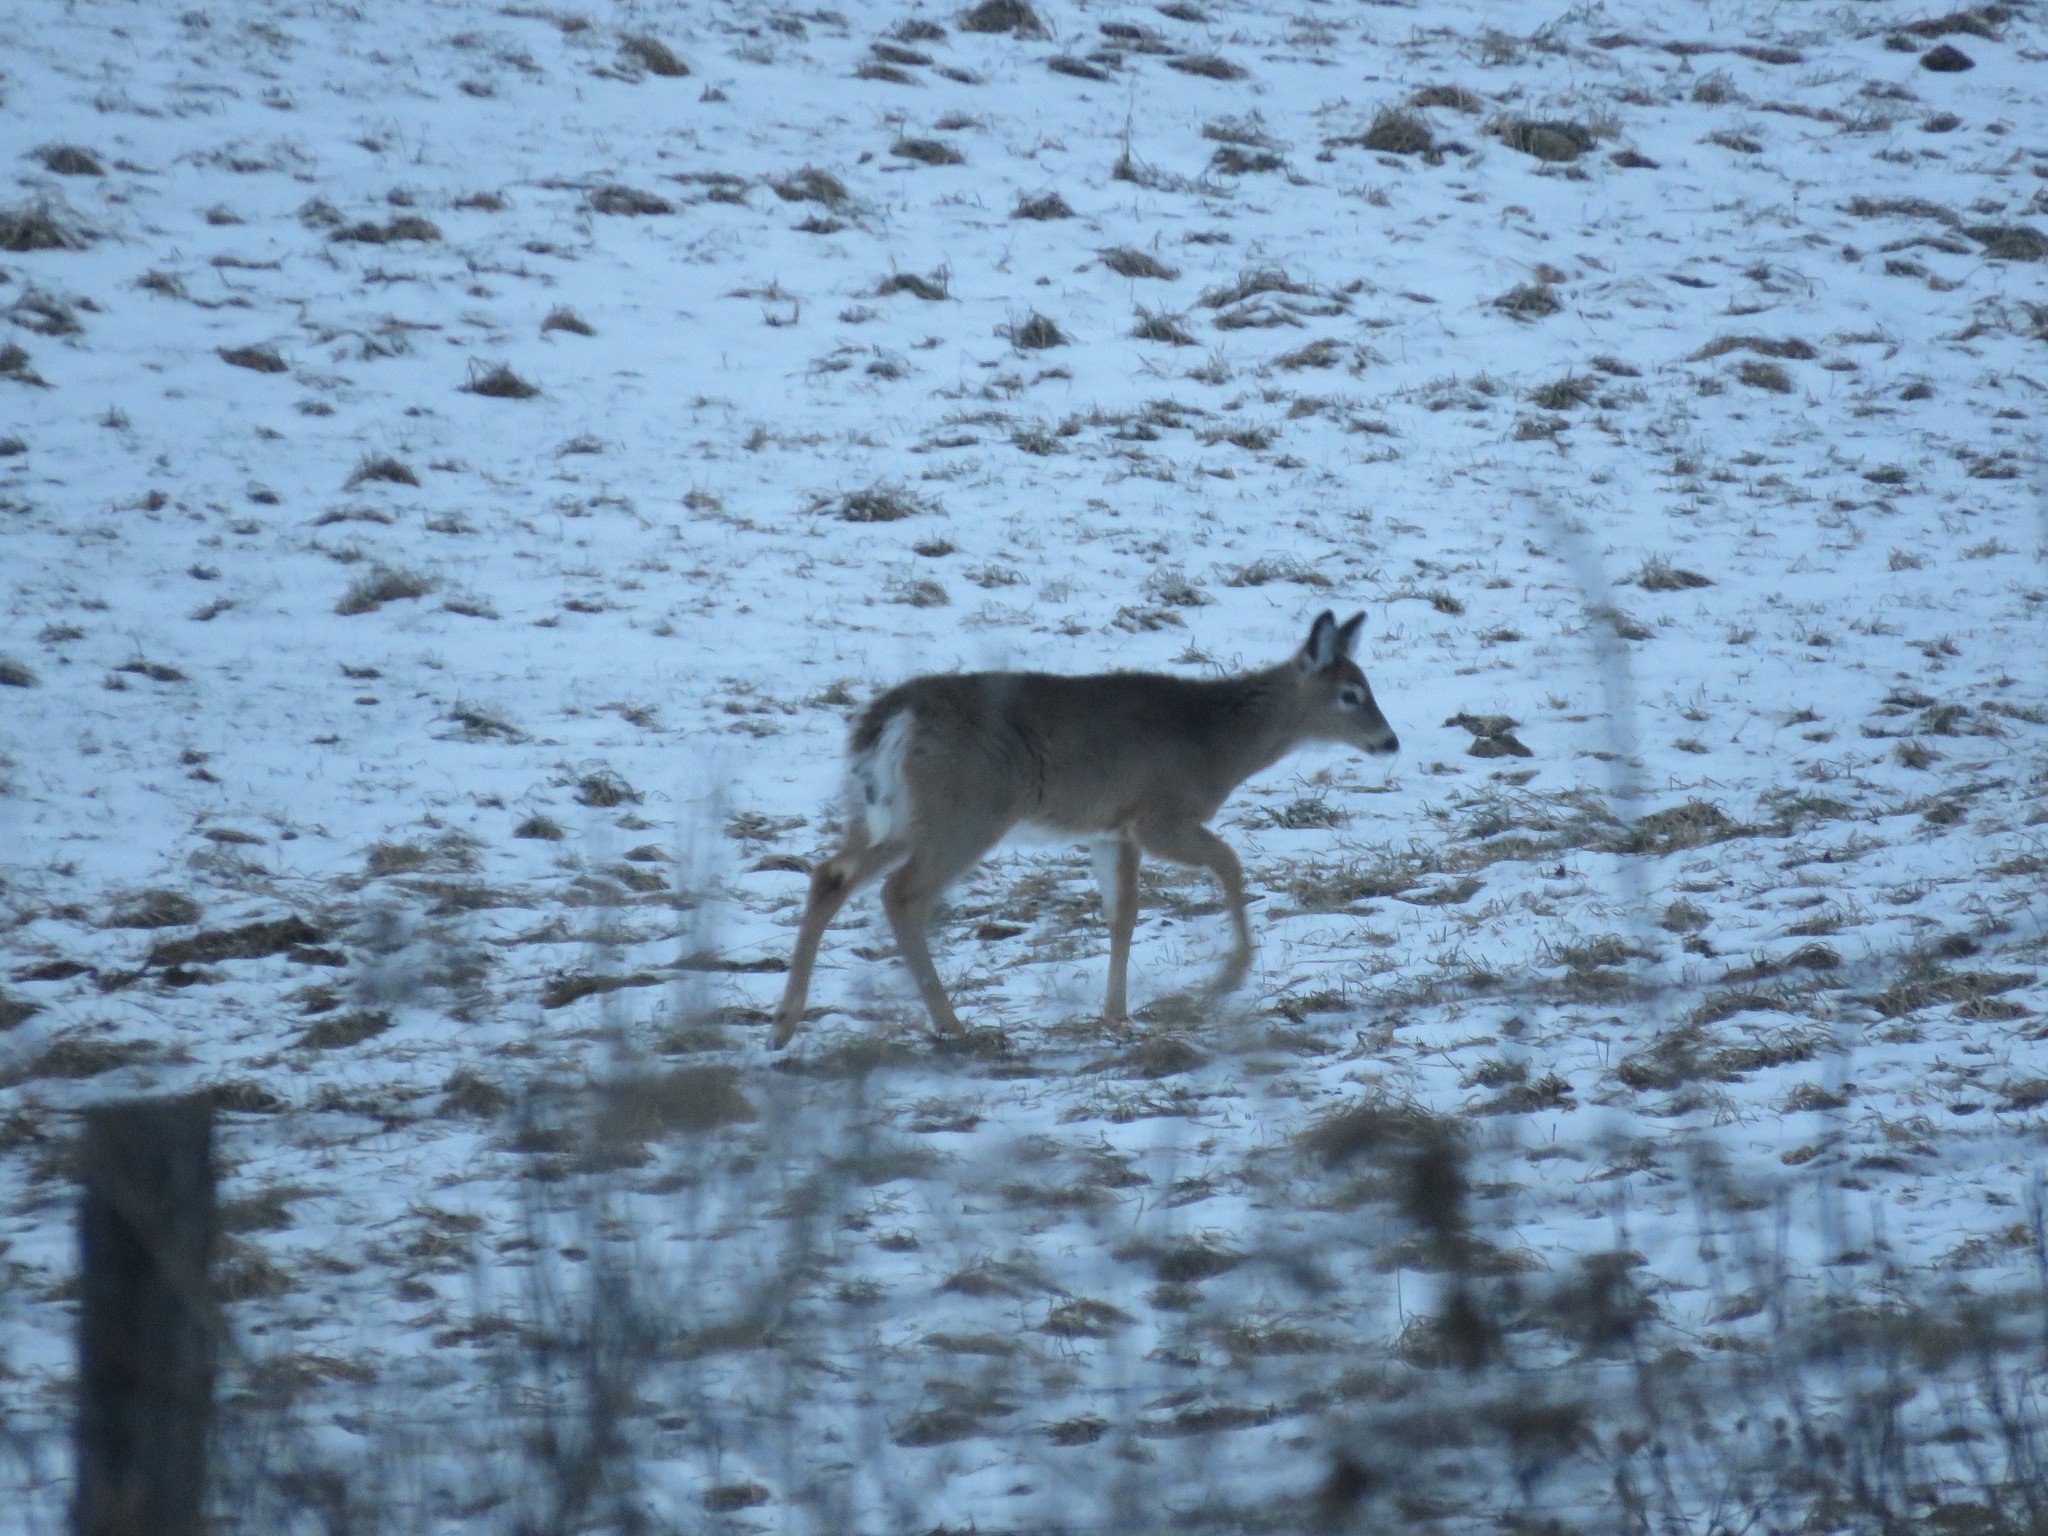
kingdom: Animalia
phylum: Chordata
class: Mammalia
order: Artiodactyla
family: Cervidae
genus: Odocoileus
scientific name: Odocoileus virginianus
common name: White-tailed deer
